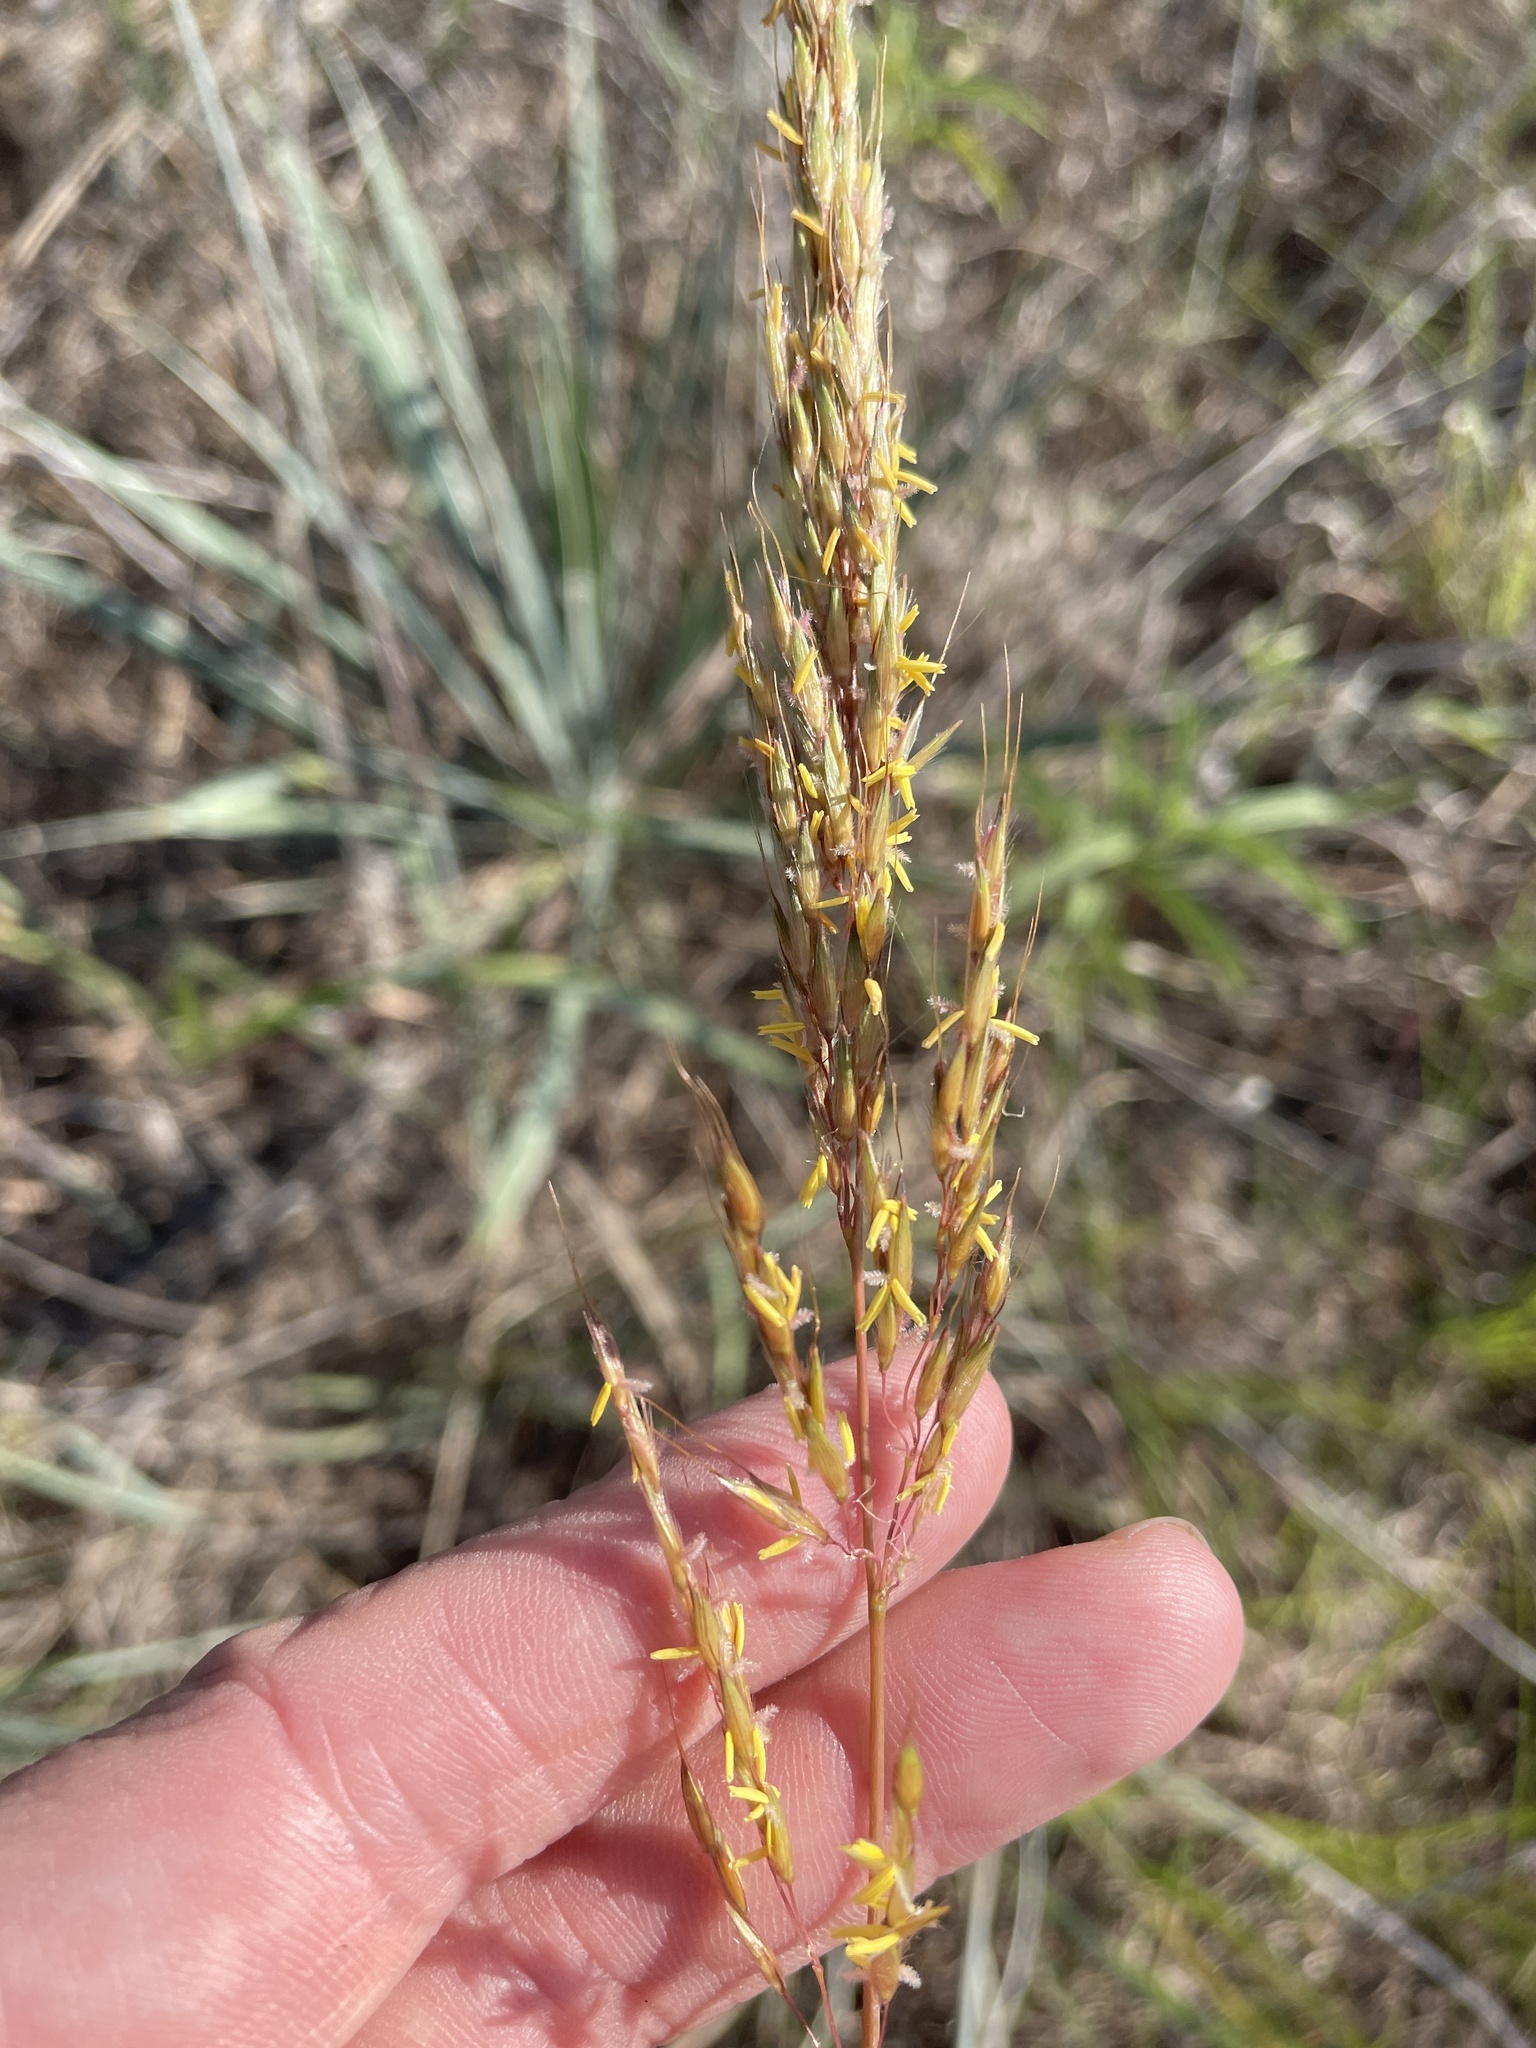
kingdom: Plantae
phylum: Tracheophyta
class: Liliopsida
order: Poales
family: Poaceae
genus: Sorghastrum
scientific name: Sorghastrum nutans
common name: Indian grass
